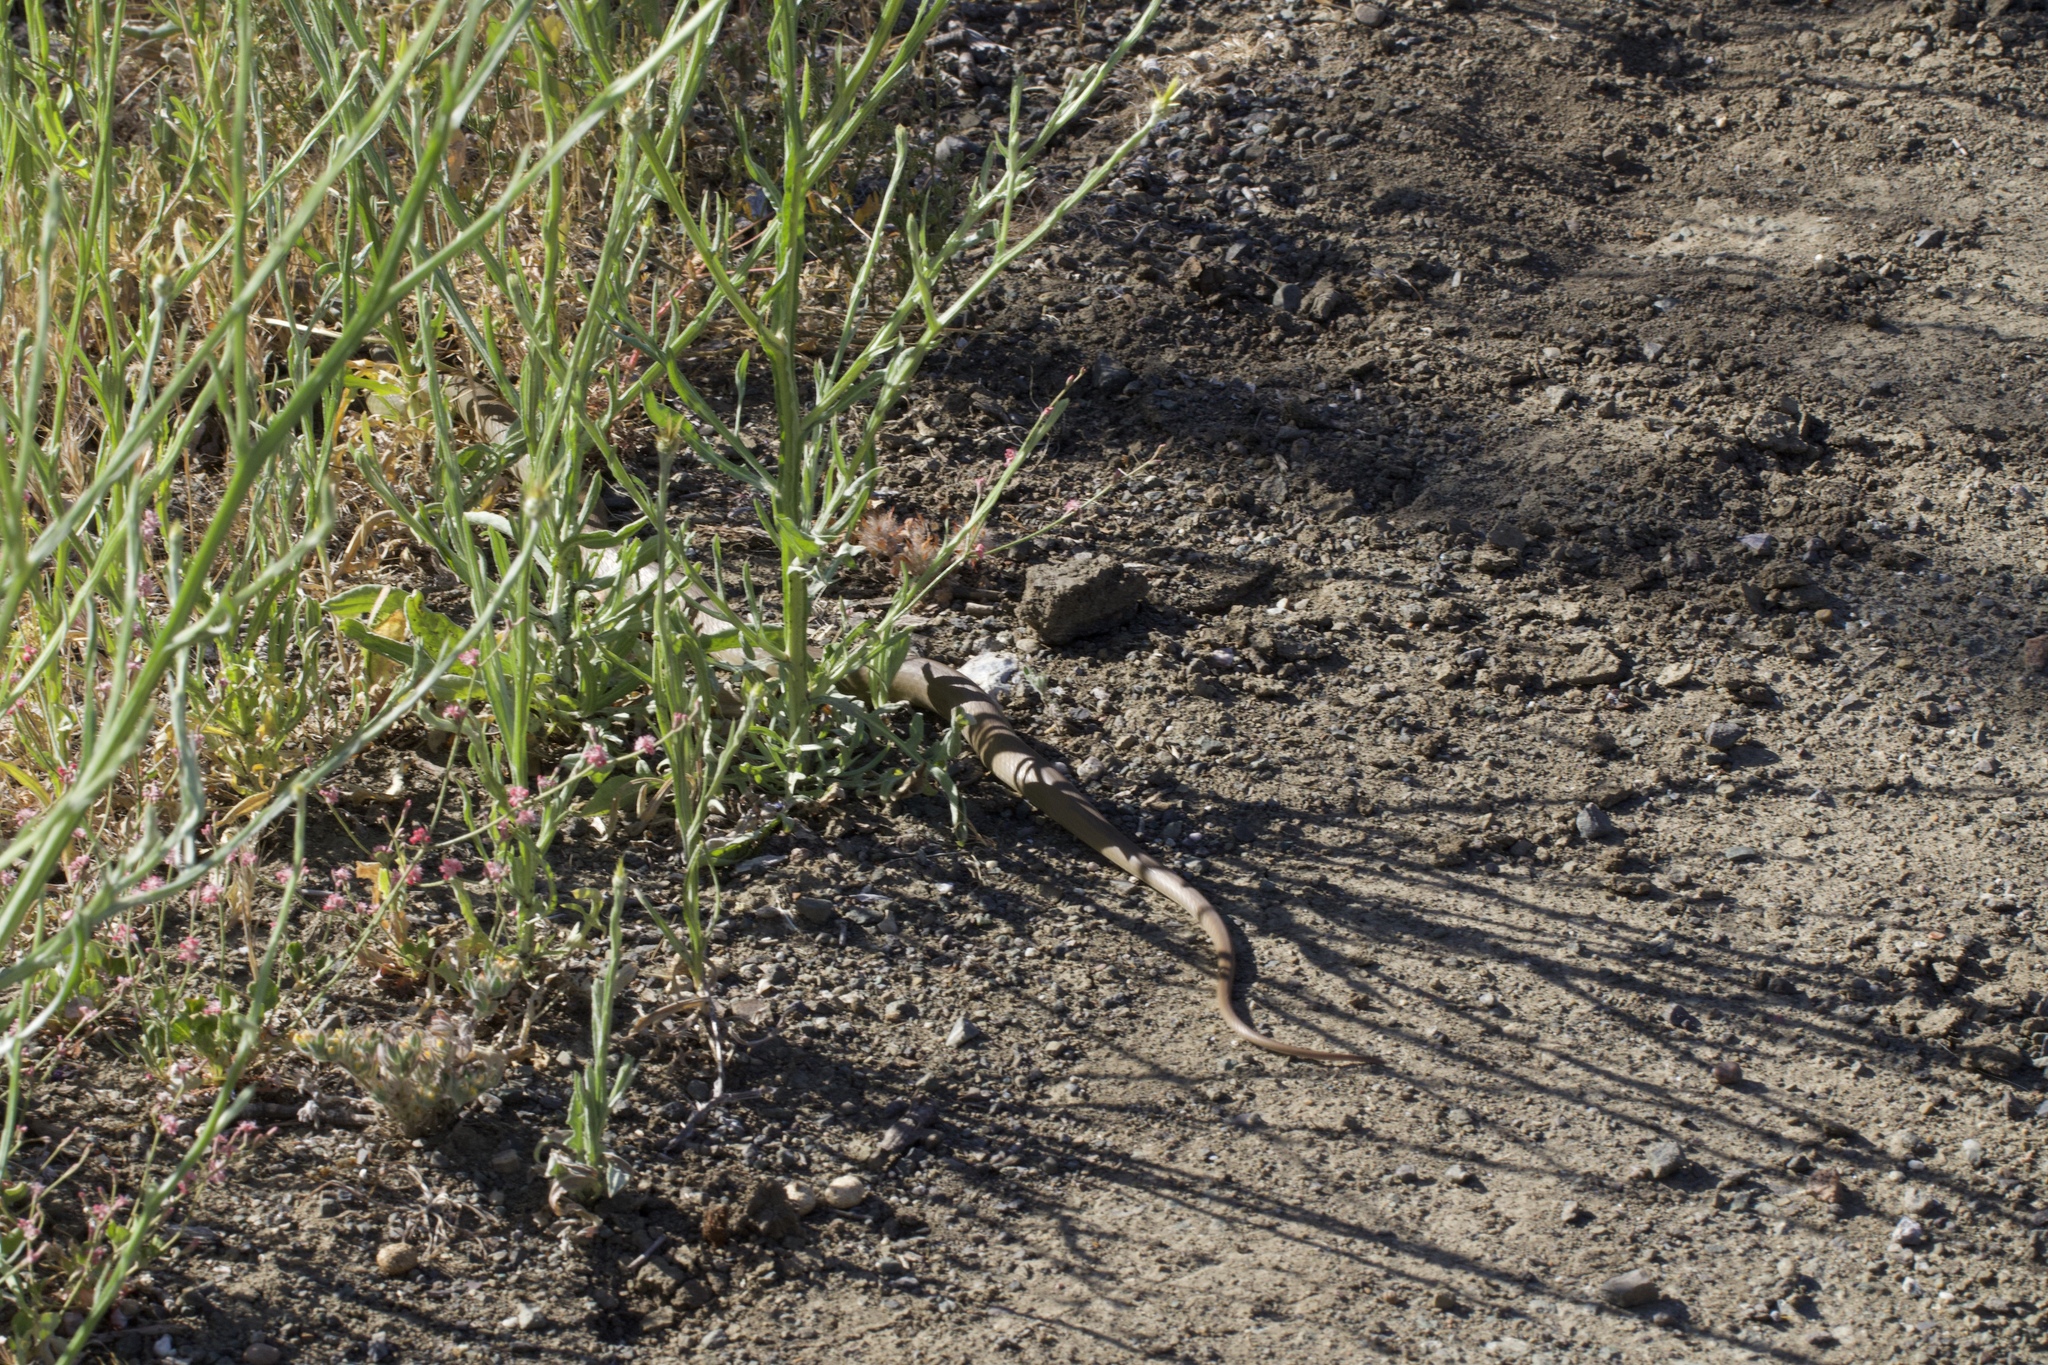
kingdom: Animalia
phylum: Chordata
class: Squamata
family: Colubridae
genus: Coluber
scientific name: Coluber constrictor
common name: Eastern racer
